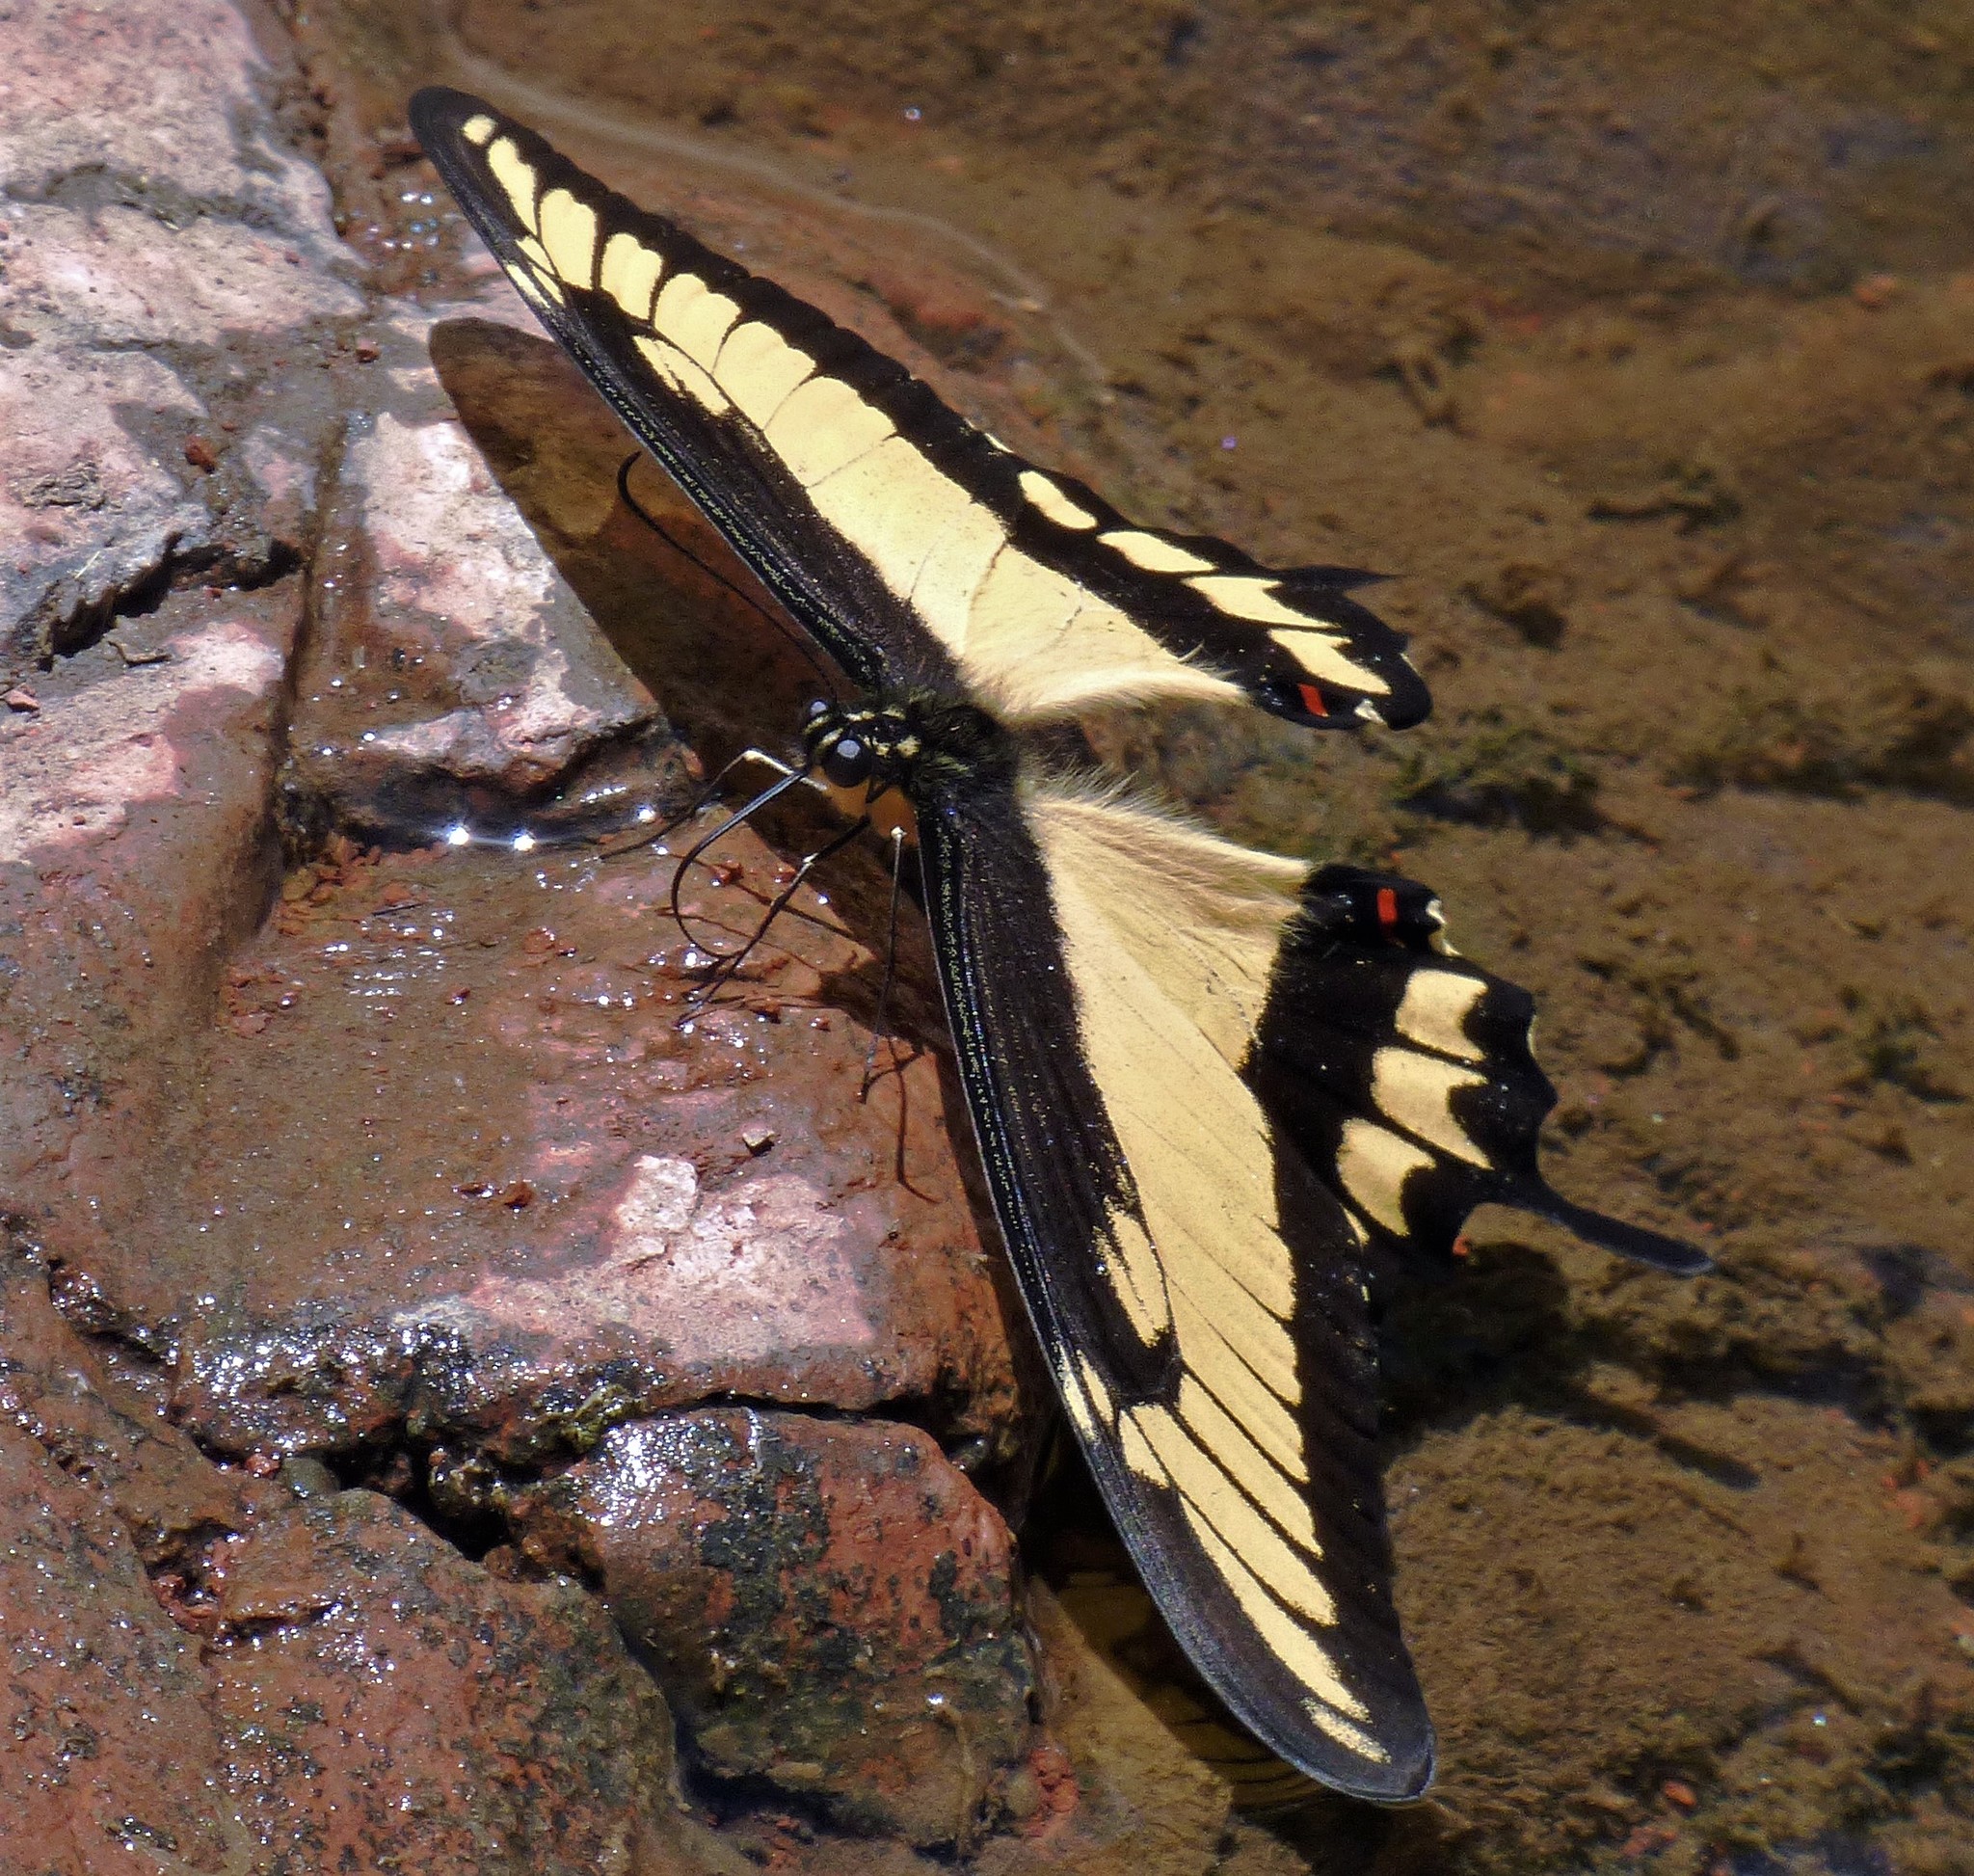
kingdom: Animalia
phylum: Arthropoda
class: Insecta
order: Lepidoptera
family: Papilionidae
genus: Papilio
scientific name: Papilio astyalus
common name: Astyalus swallowtail
